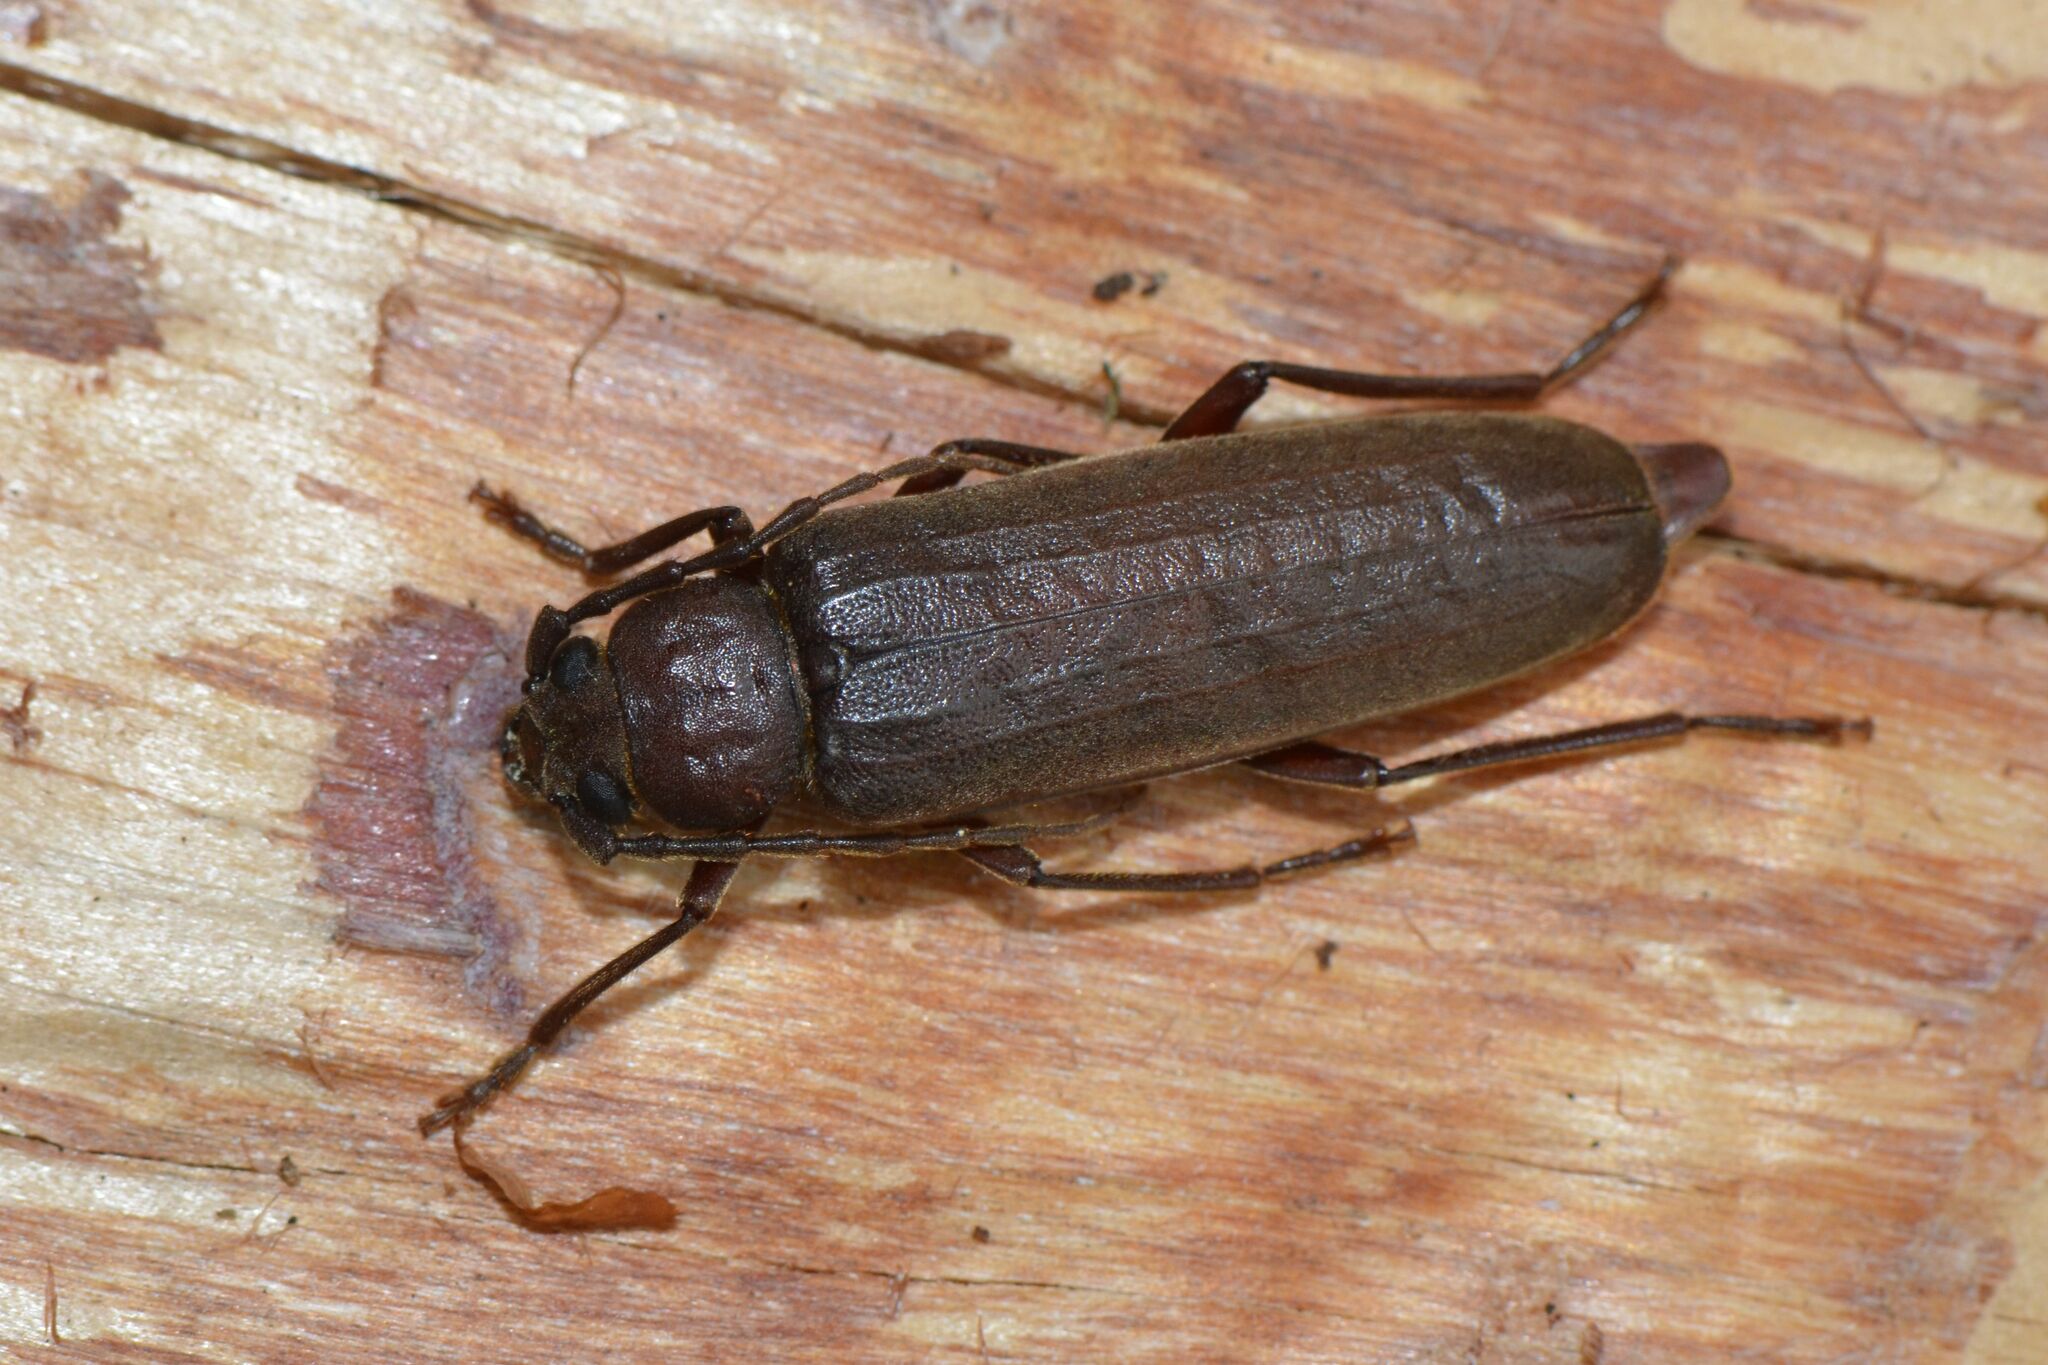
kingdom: Animalia
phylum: Arthropoda
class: Insecta
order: Coleoptera
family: Cerambycidae
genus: Arhopalus
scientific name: Arhopalus rusticus
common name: Rust pine borer
